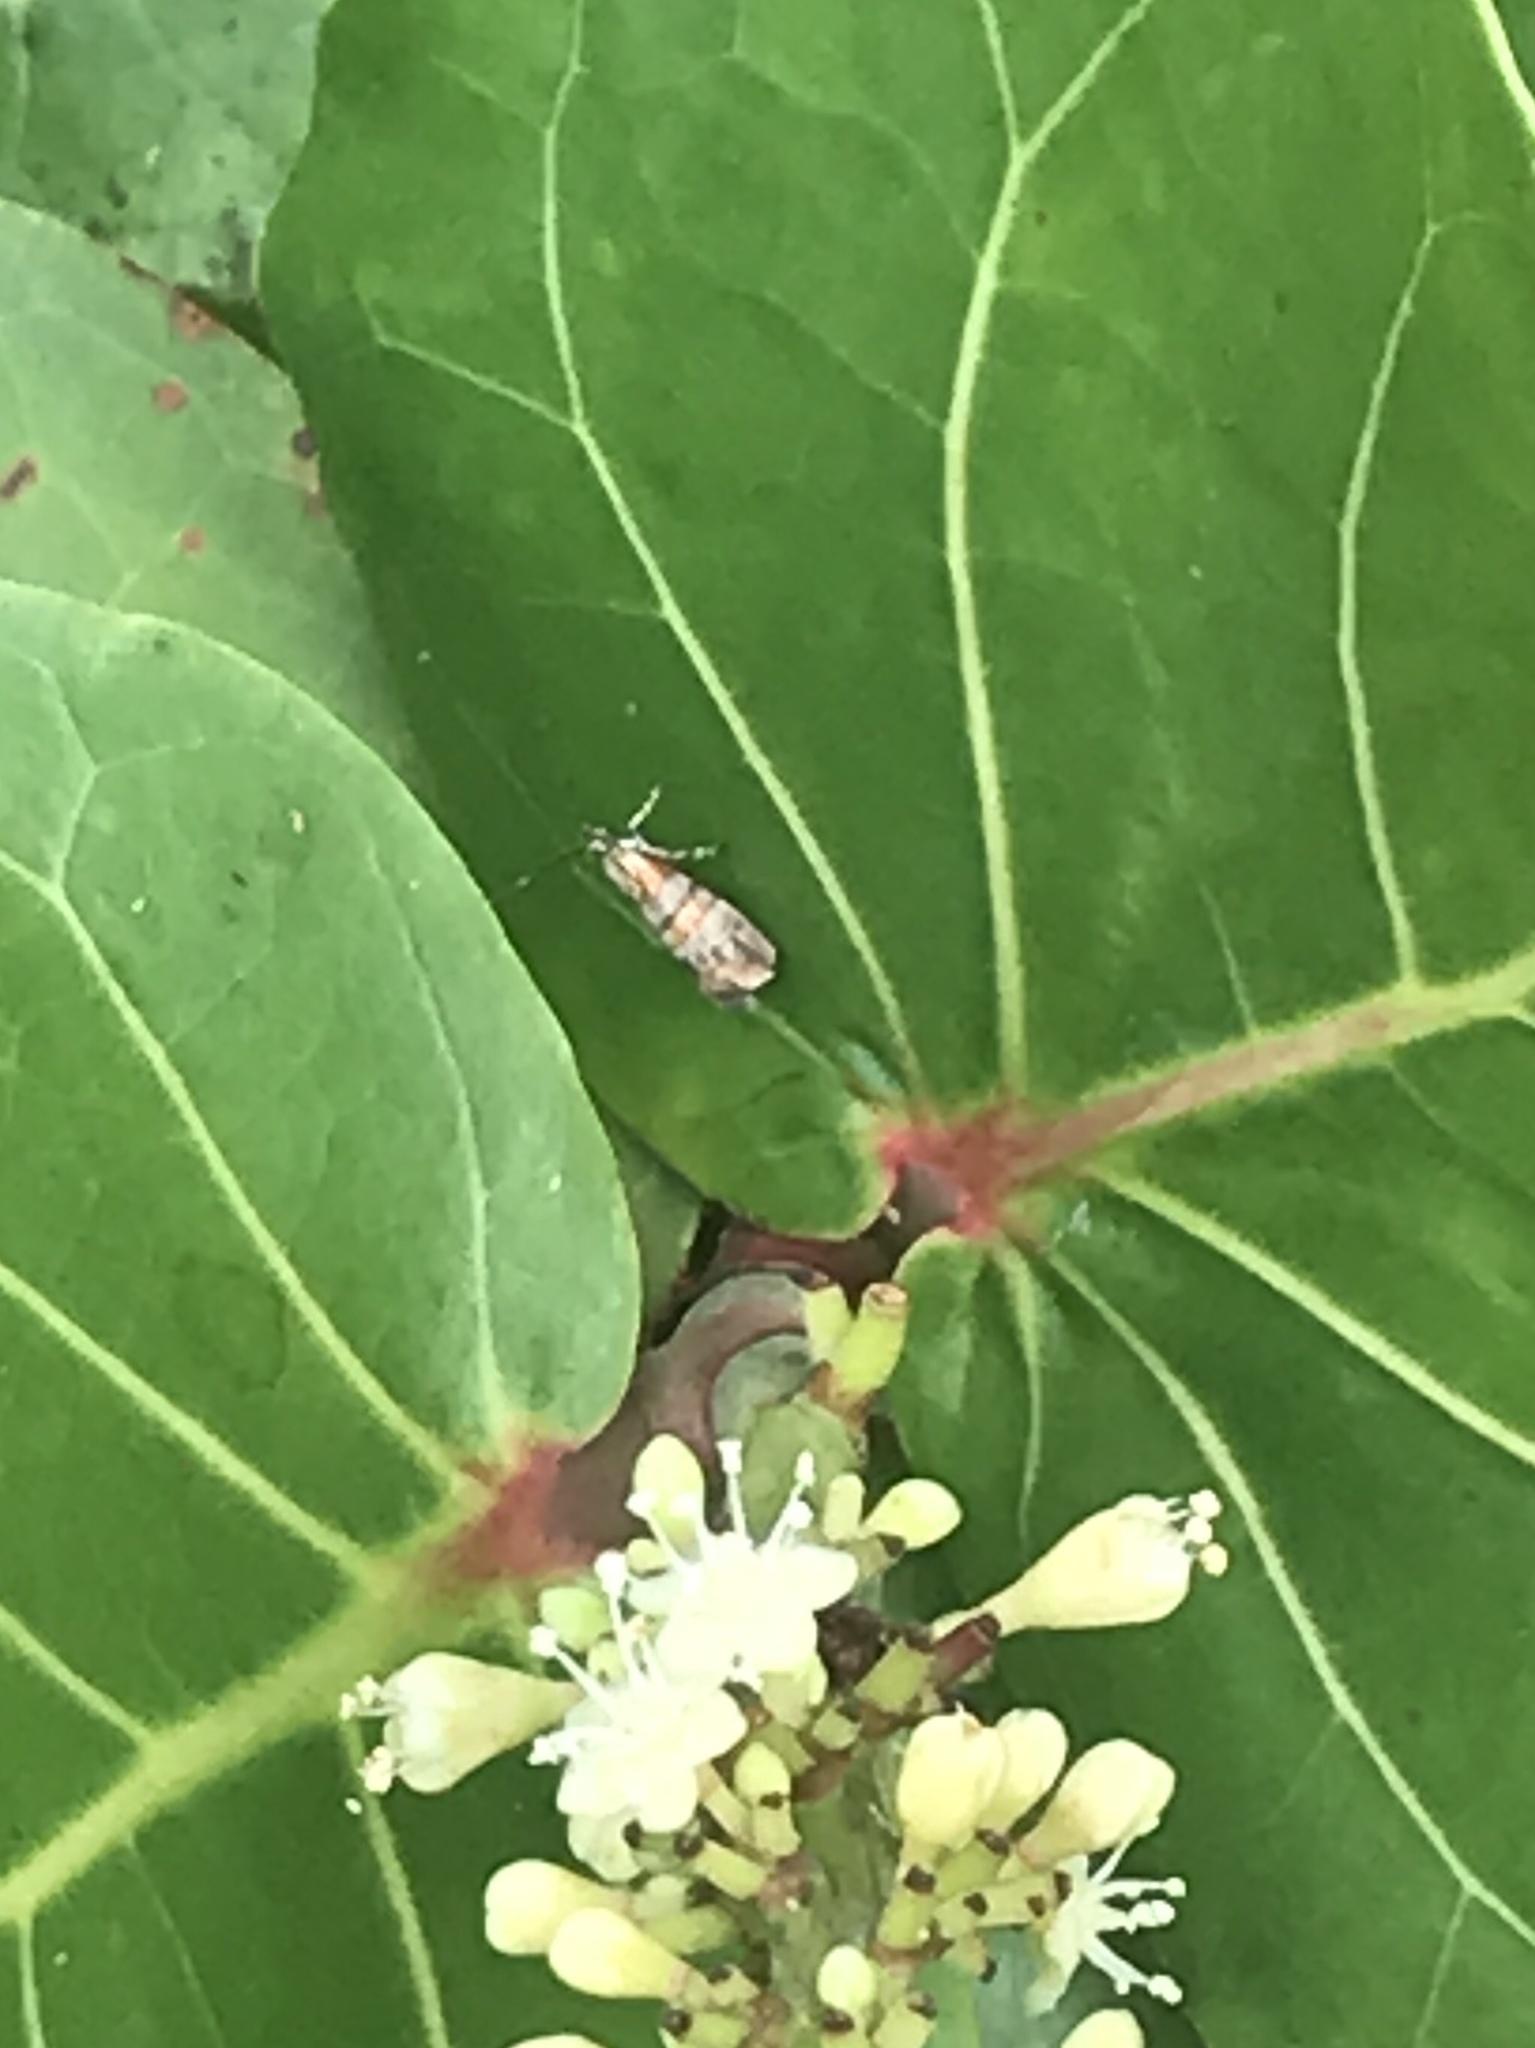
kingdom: Animalia
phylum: Arthropoda
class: Insecta
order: Lepidoptera
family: Choreutidae
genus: Tortyra
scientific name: Tortyra slossonia
